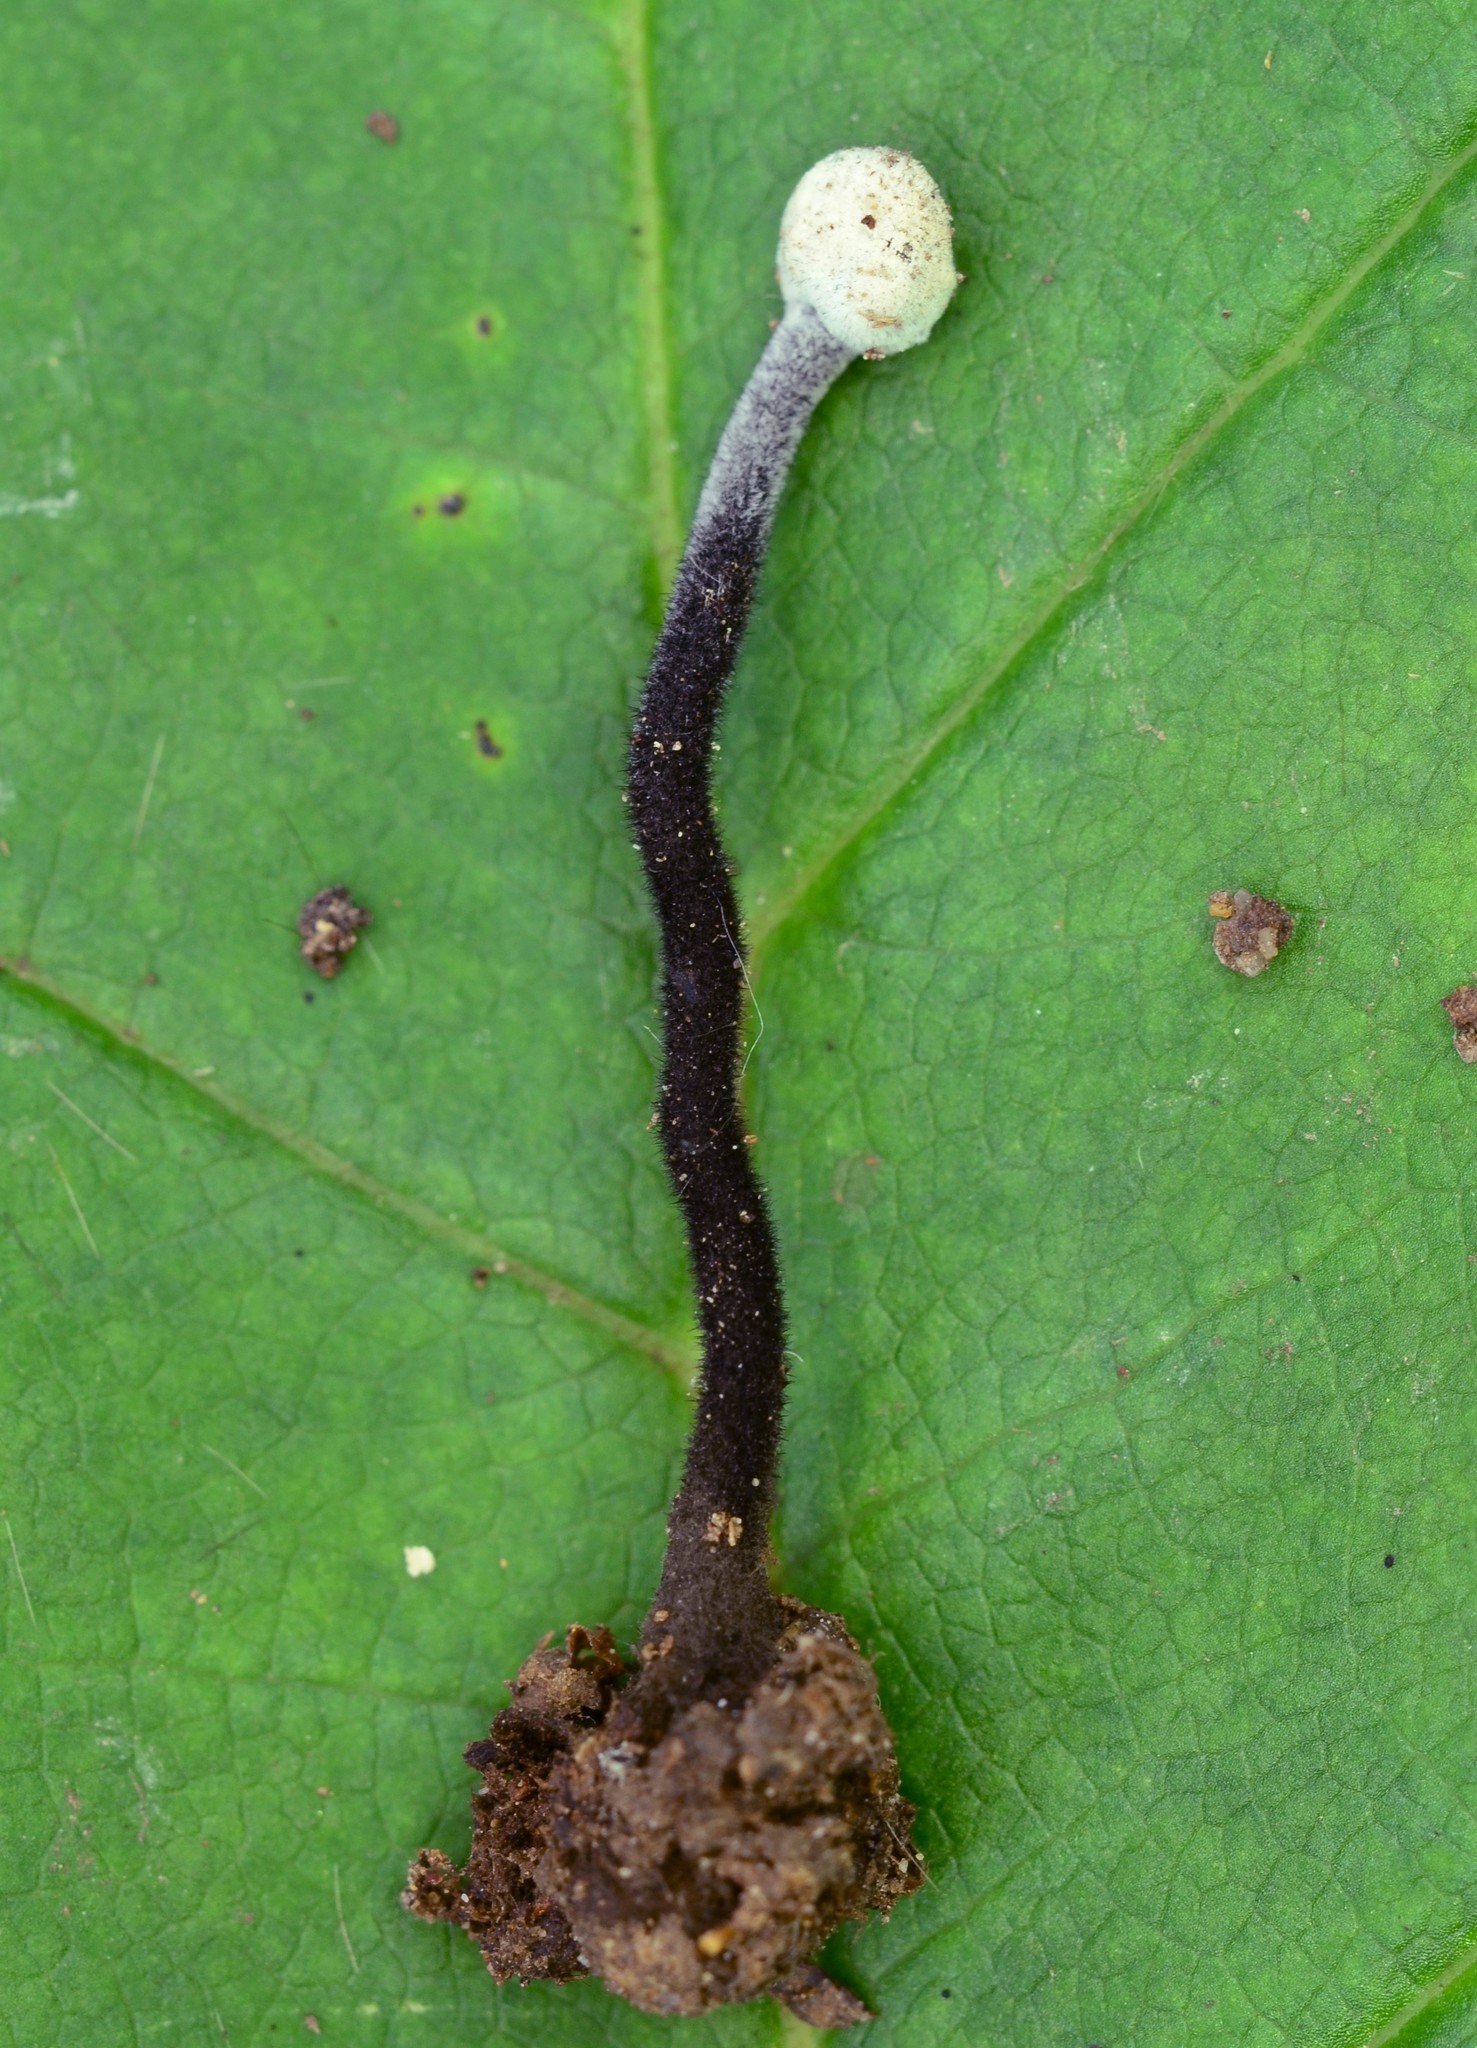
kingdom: Fungi
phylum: Ascomycota
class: Sordariomycetes
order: Hypocreales
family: Hypocreaceae
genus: Hypomyces
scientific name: Hypomyces papulasporae
